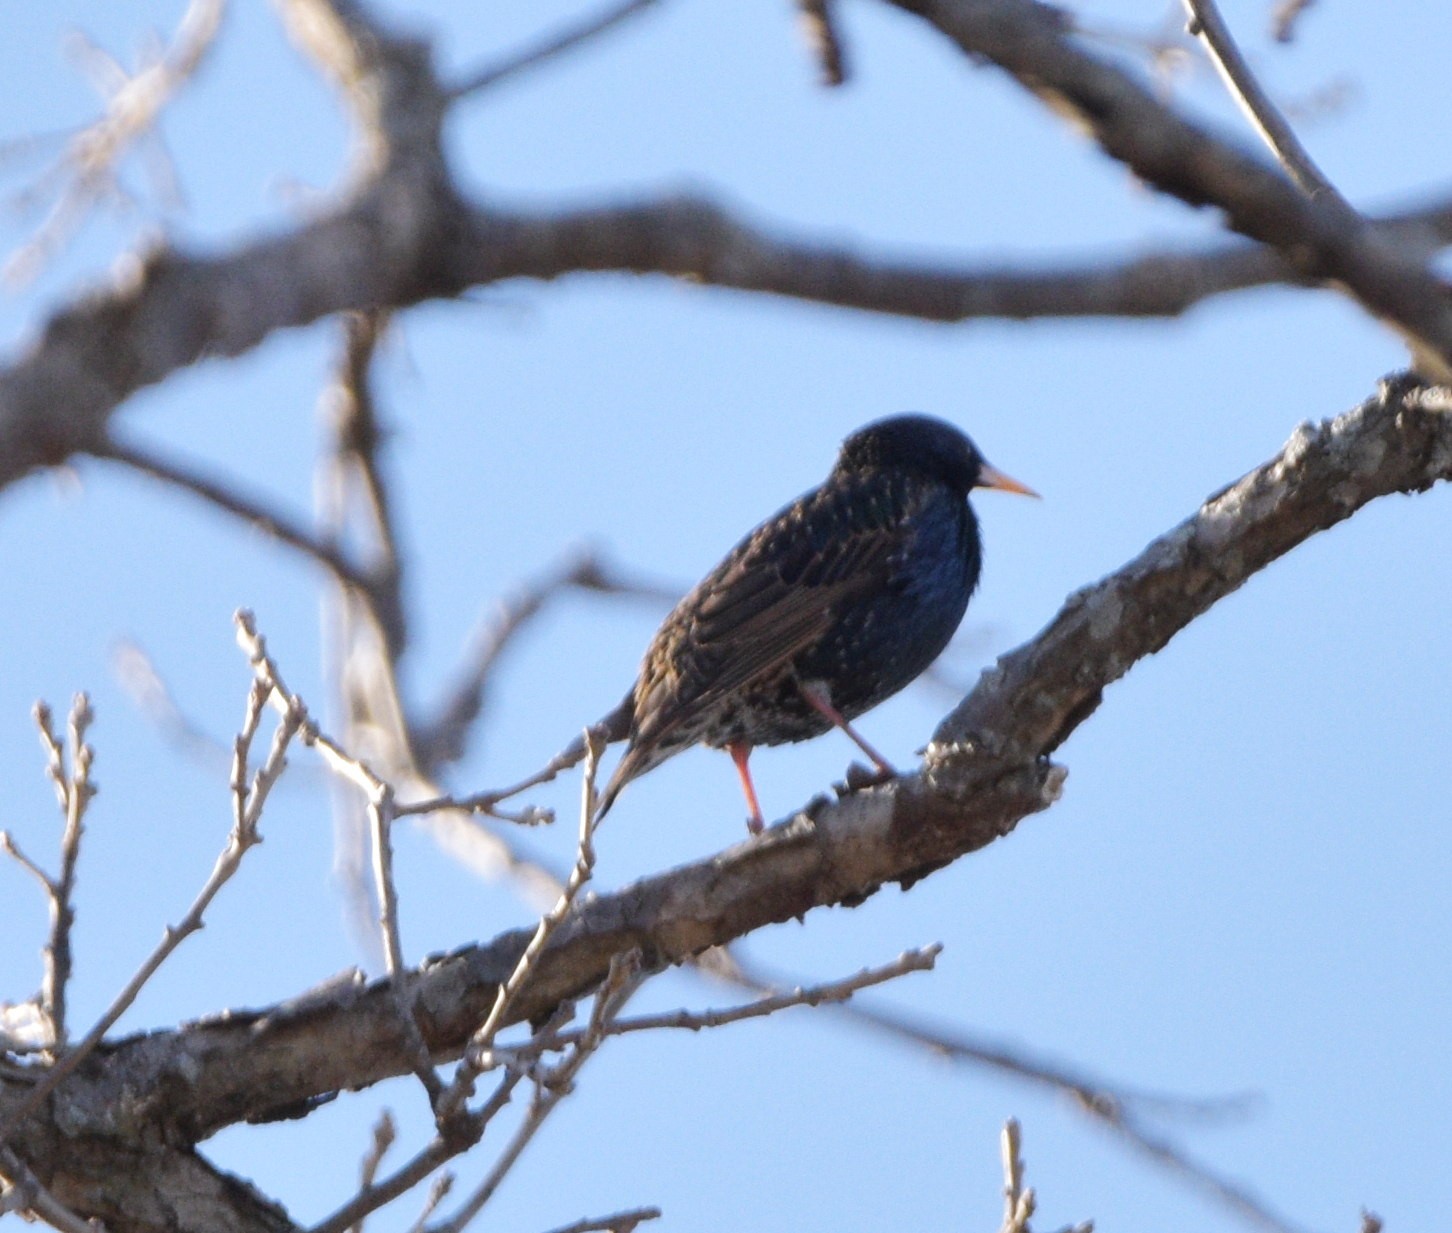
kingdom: Animalia
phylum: Chordata
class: Aves
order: Passeriformes
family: Sturnidae
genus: Sturnus
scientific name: Sturnus vulgaris
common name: Common starling
